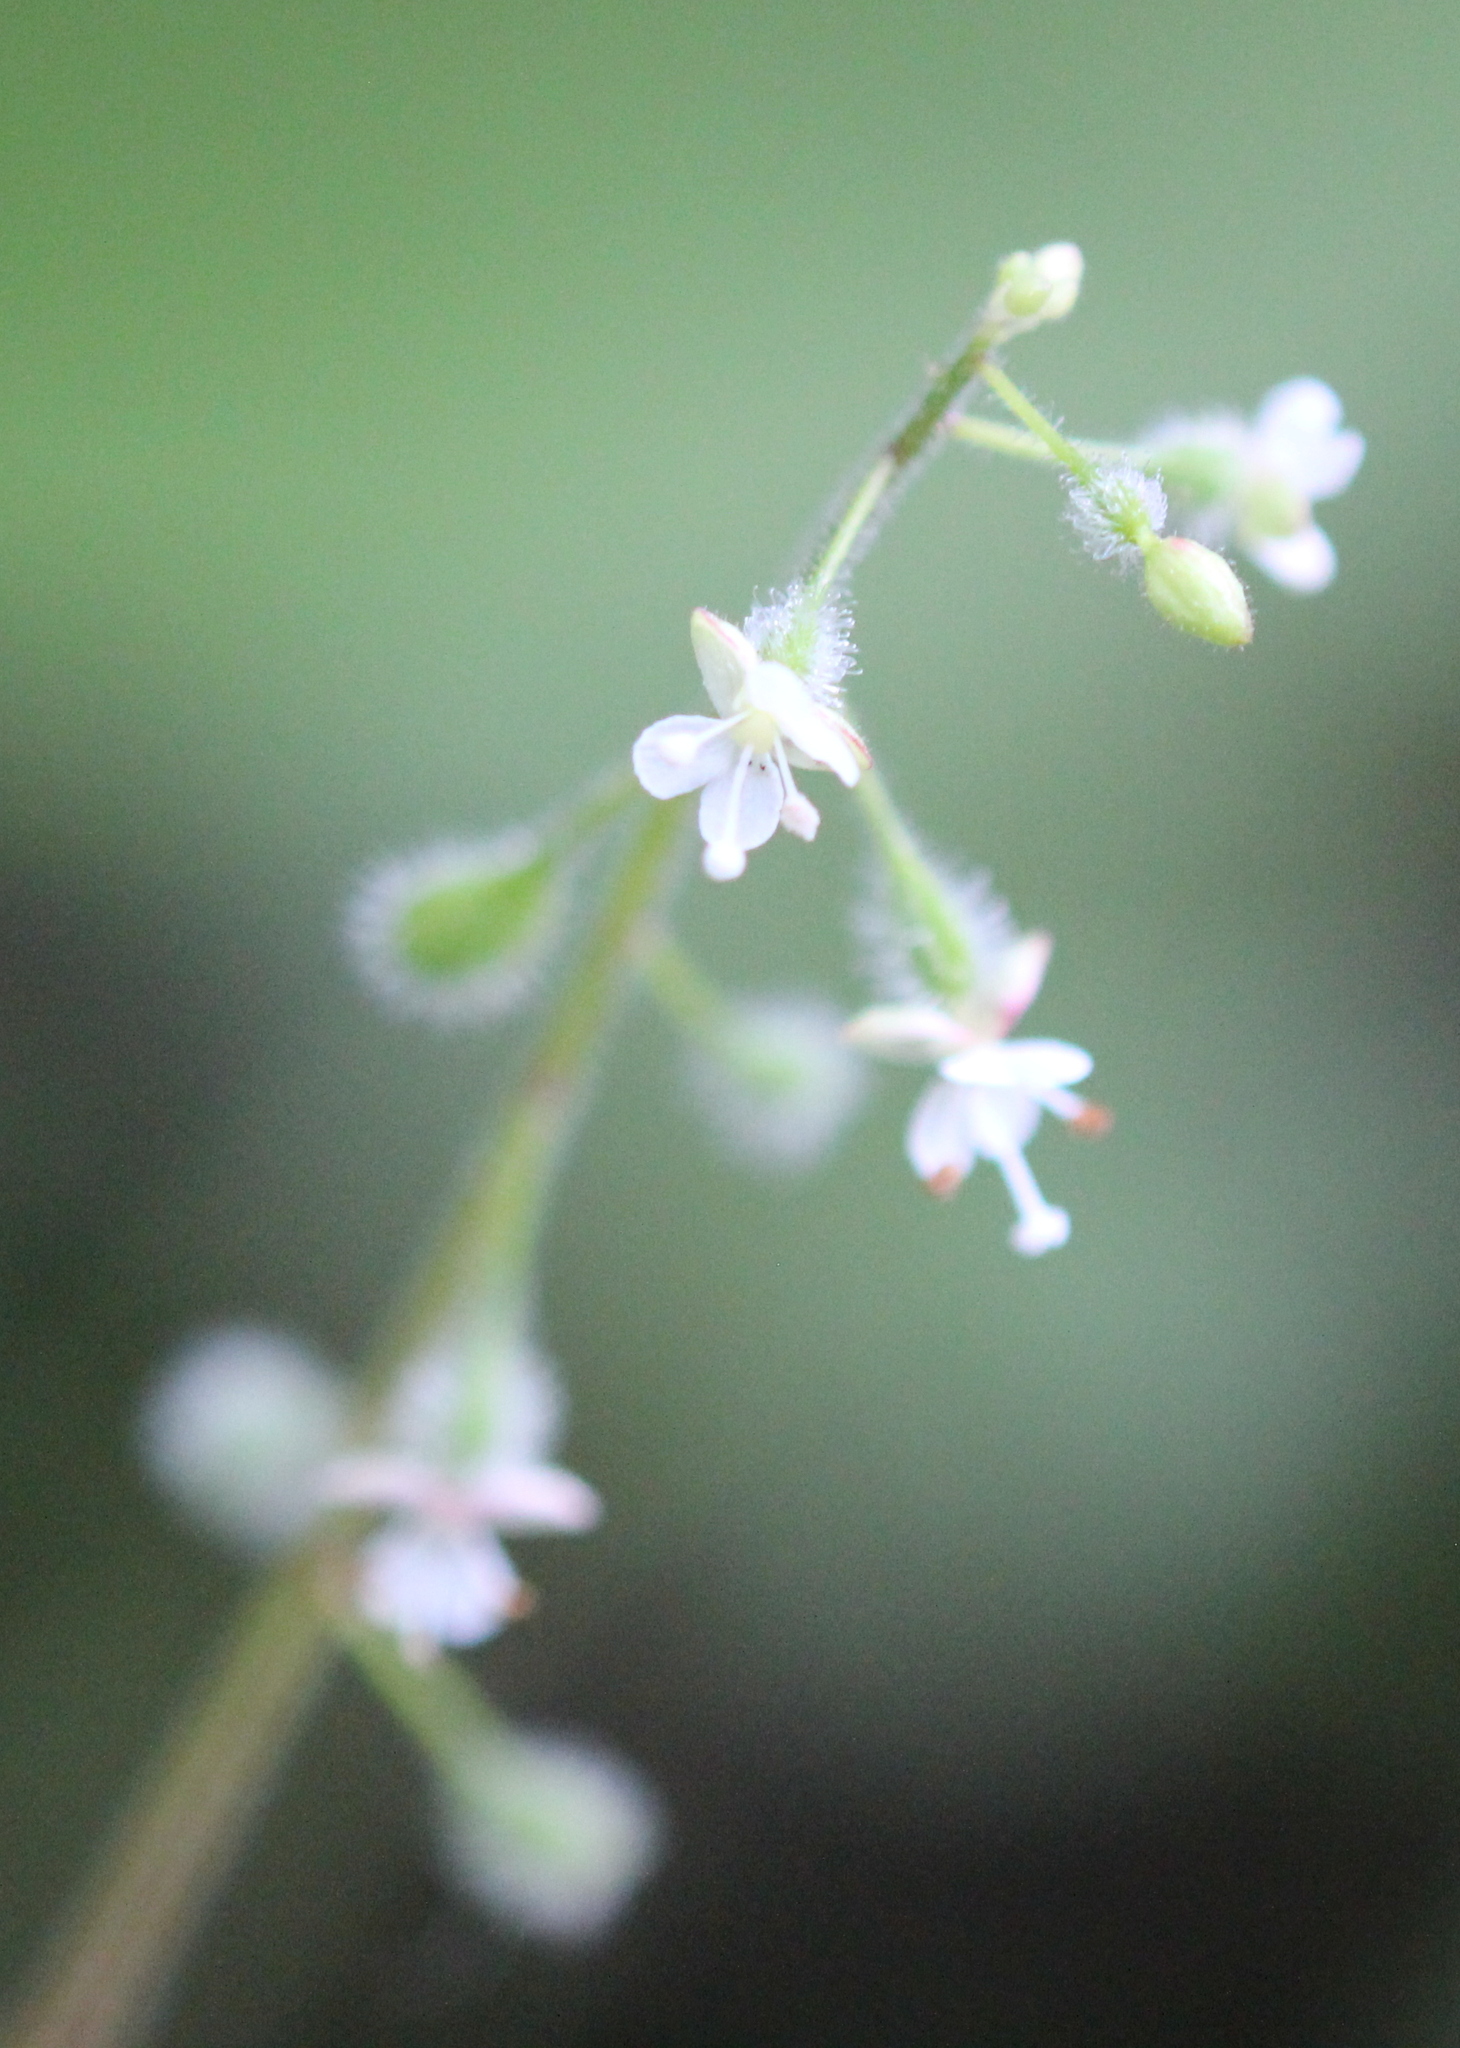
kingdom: Plantae
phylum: Tracheophyta
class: Magnoliopsida
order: Myrtales
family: Onagraceae
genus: Circaea
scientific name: Circaea canadensis
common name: Broad-leaved enchanter's nightshade
